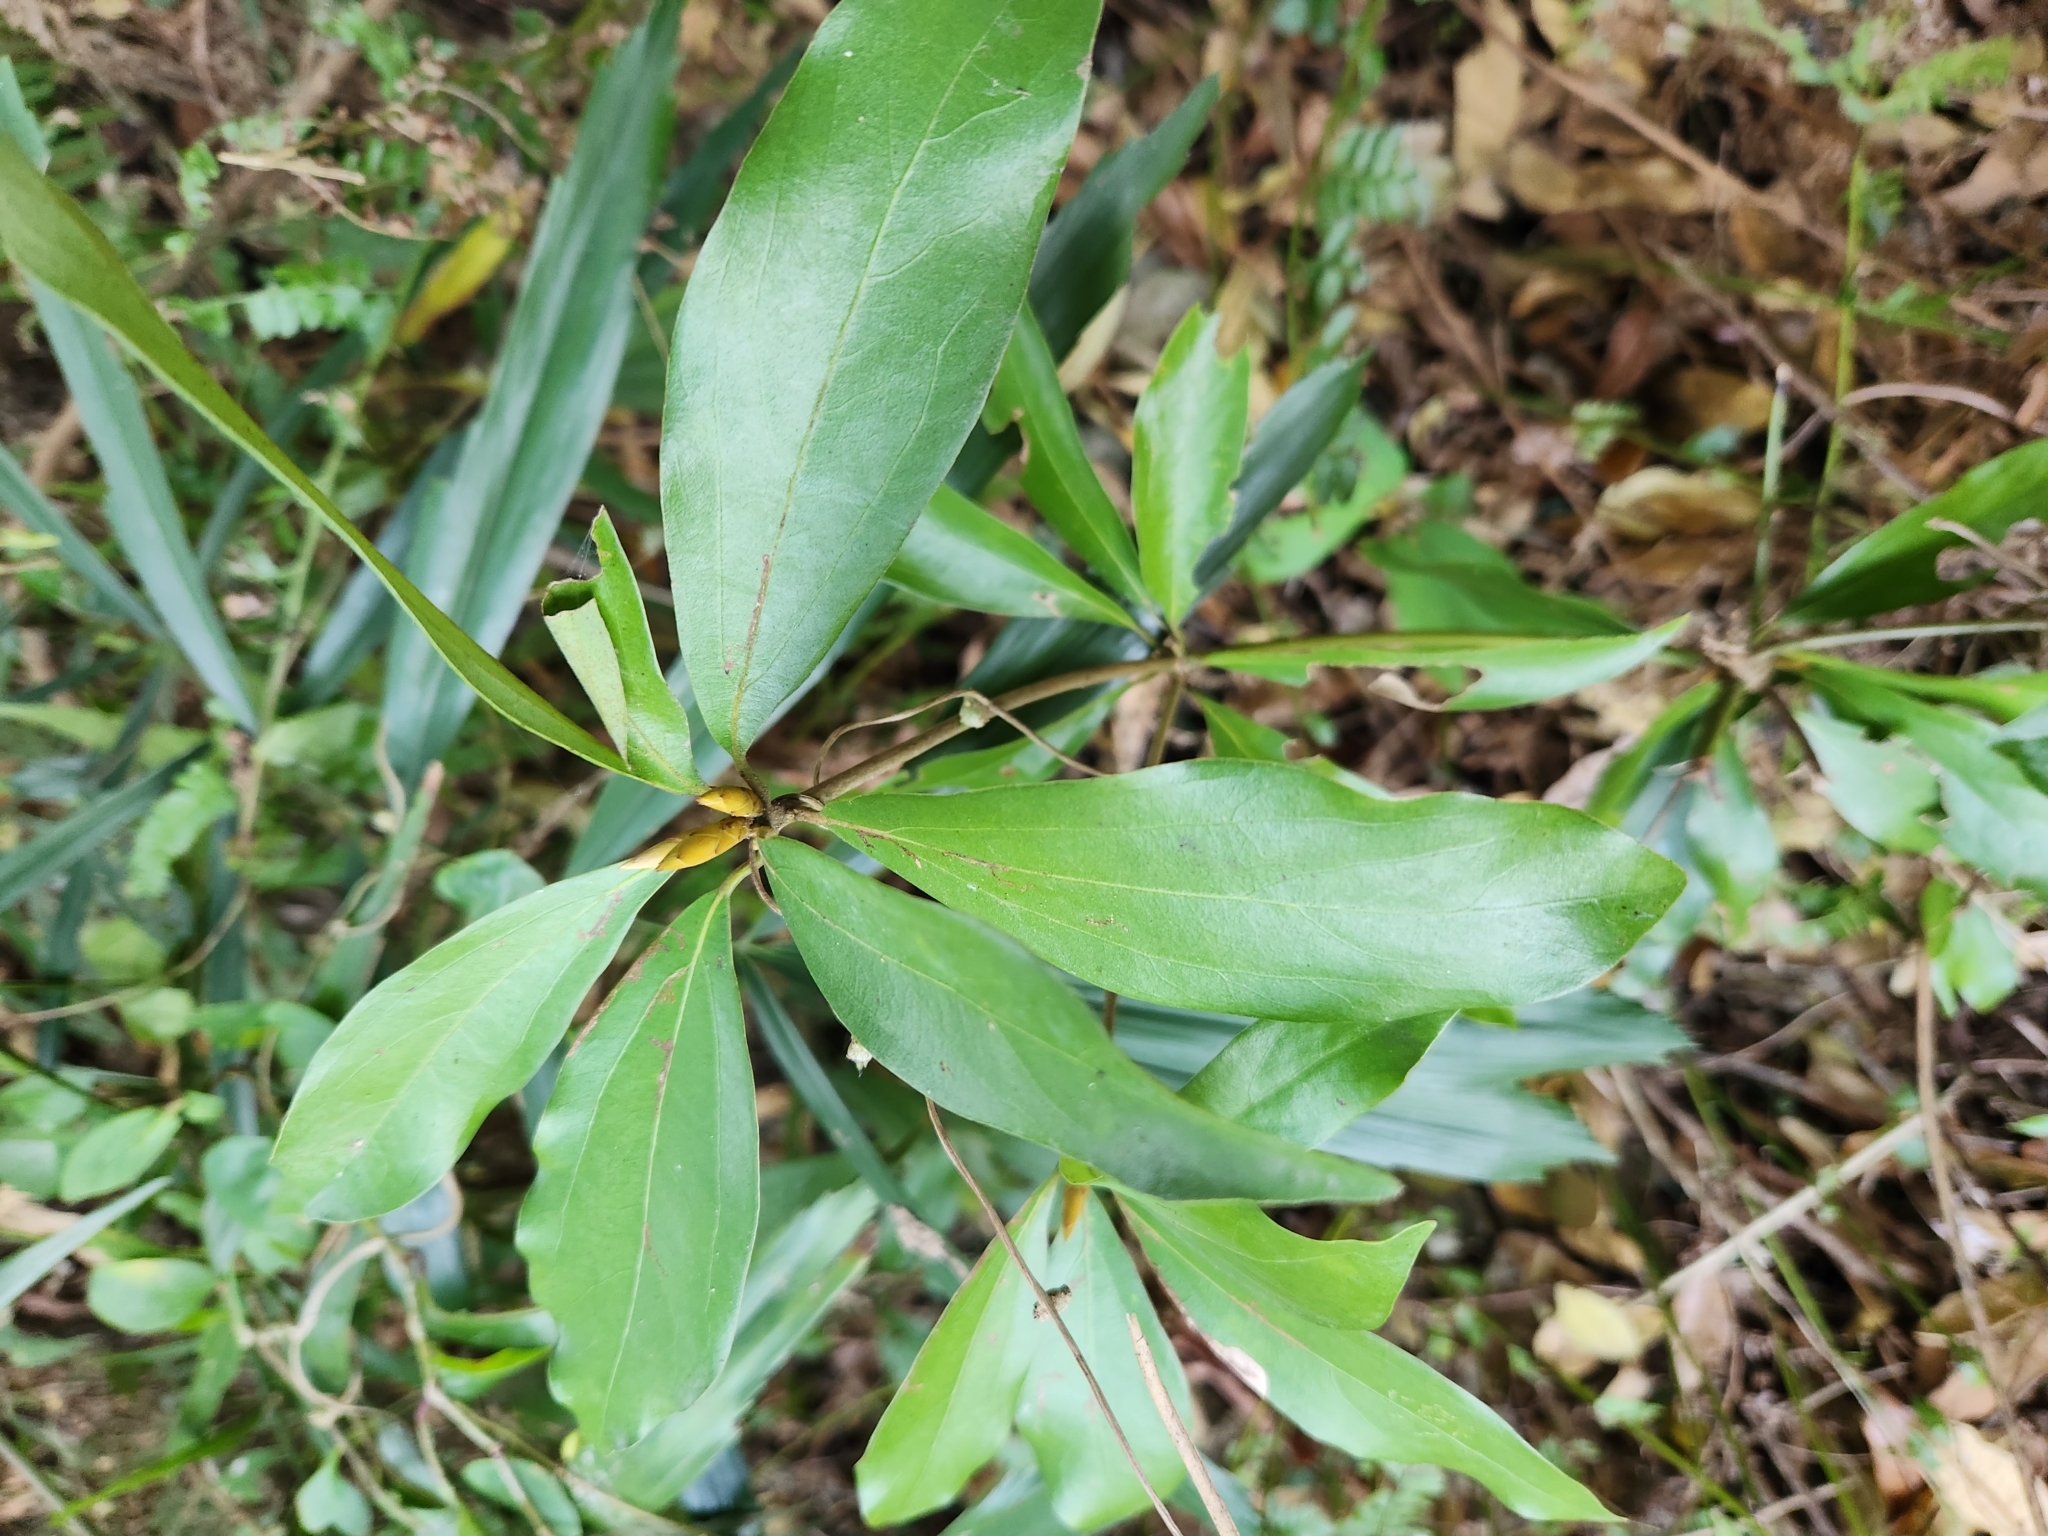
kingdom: Plantae
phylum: Tracheophyta
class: Magnoliopsida
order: Laurales
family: Lauraceae
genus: Neolitsea
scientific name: Neolitsea konishii
